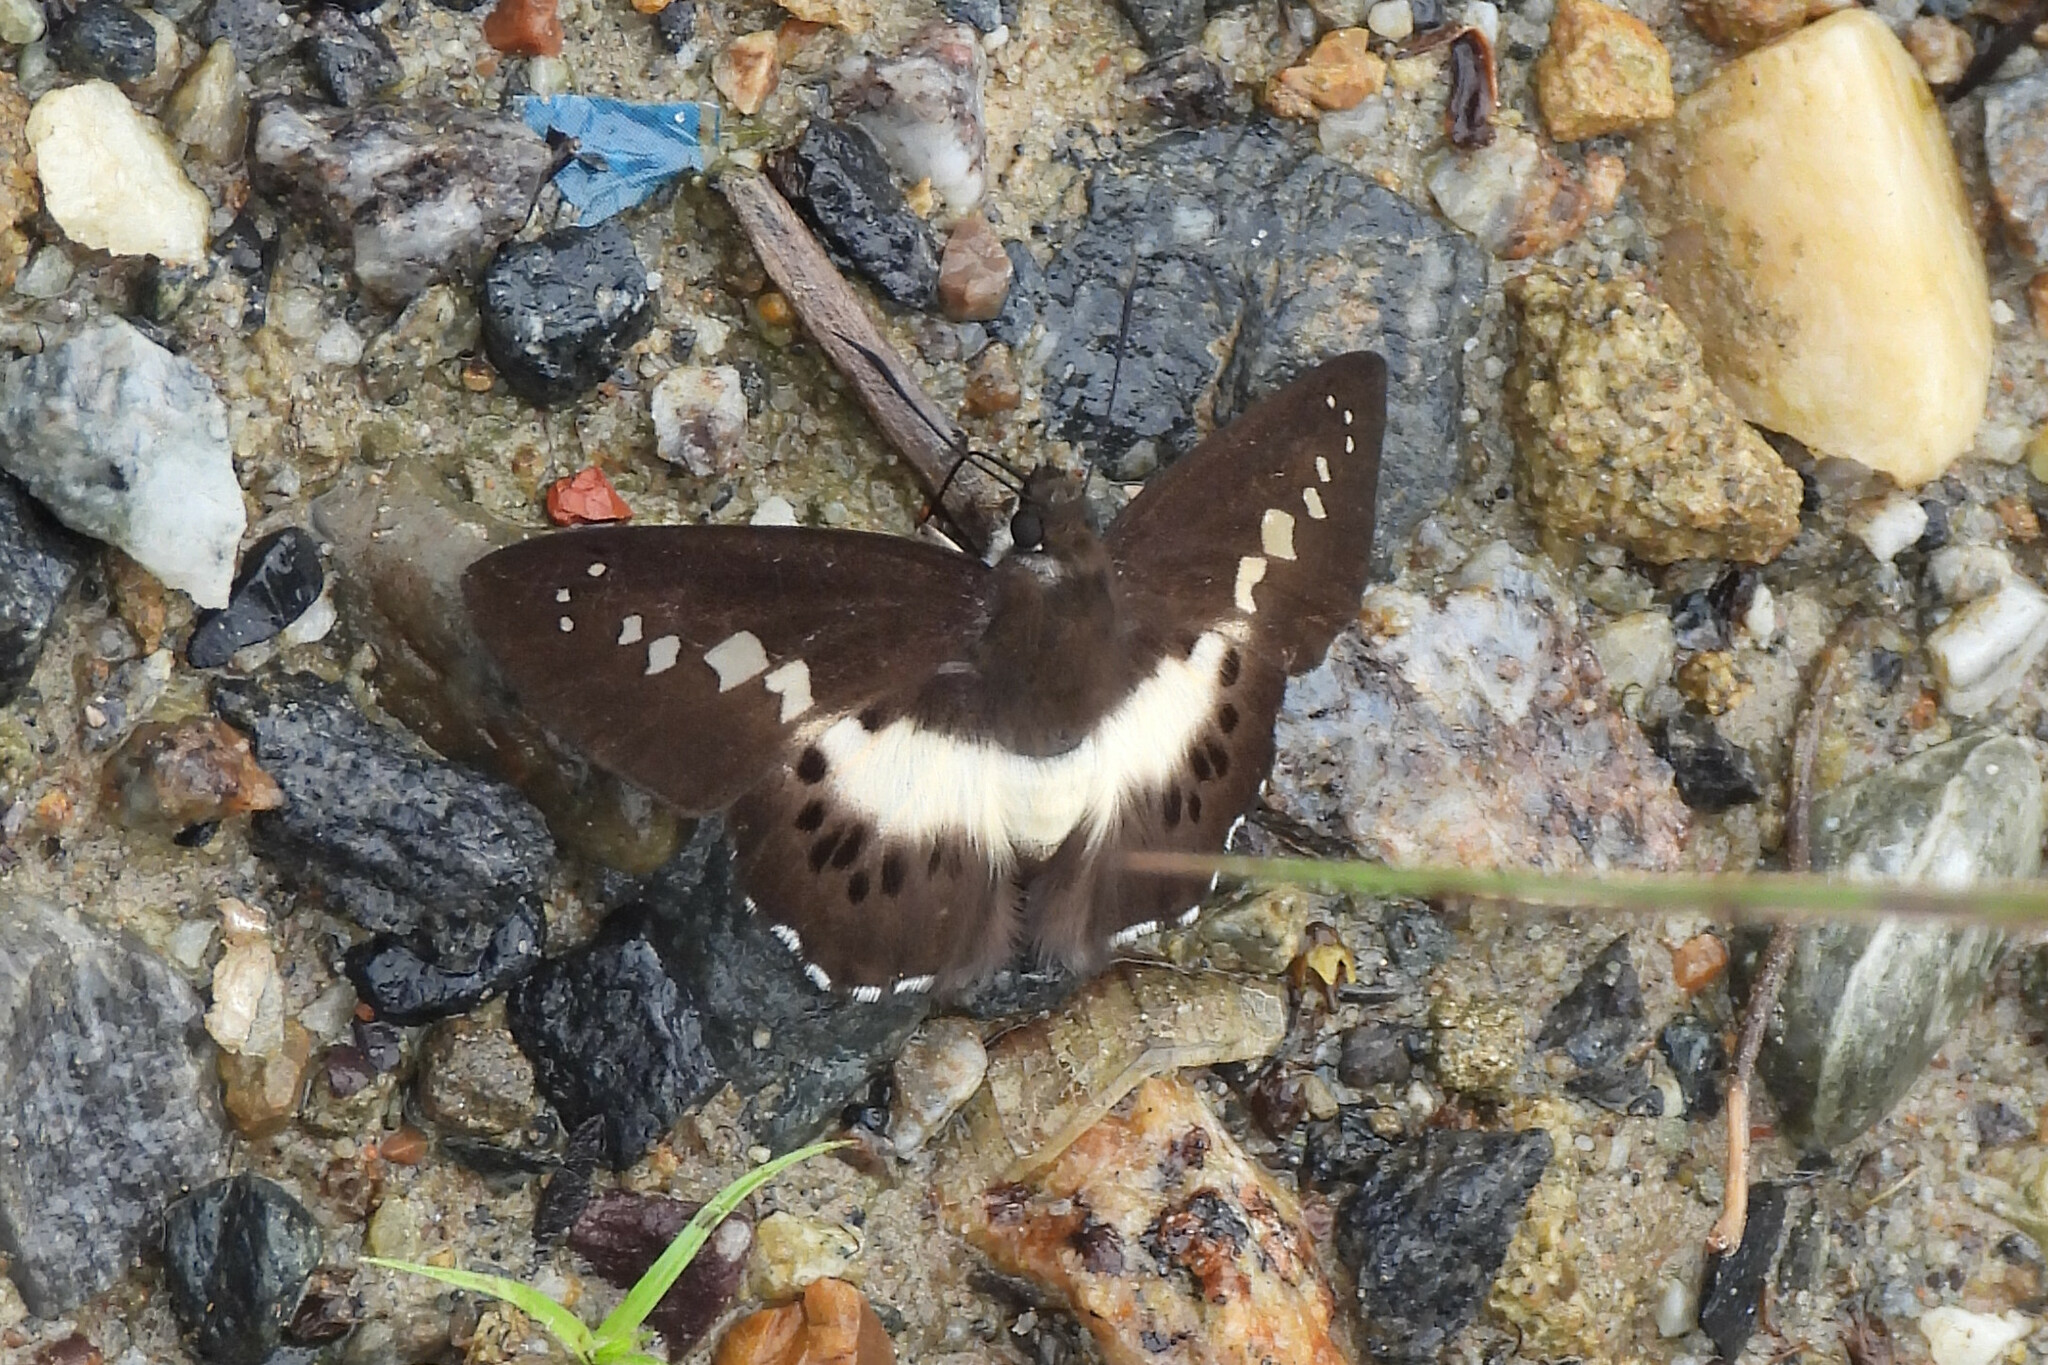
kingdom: Animalia
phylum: Arthropoda
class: Insecta
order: Lepidoptera
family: Hesperiidae
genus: Seseria
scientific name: Seseria sambara
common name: Notched seseria
